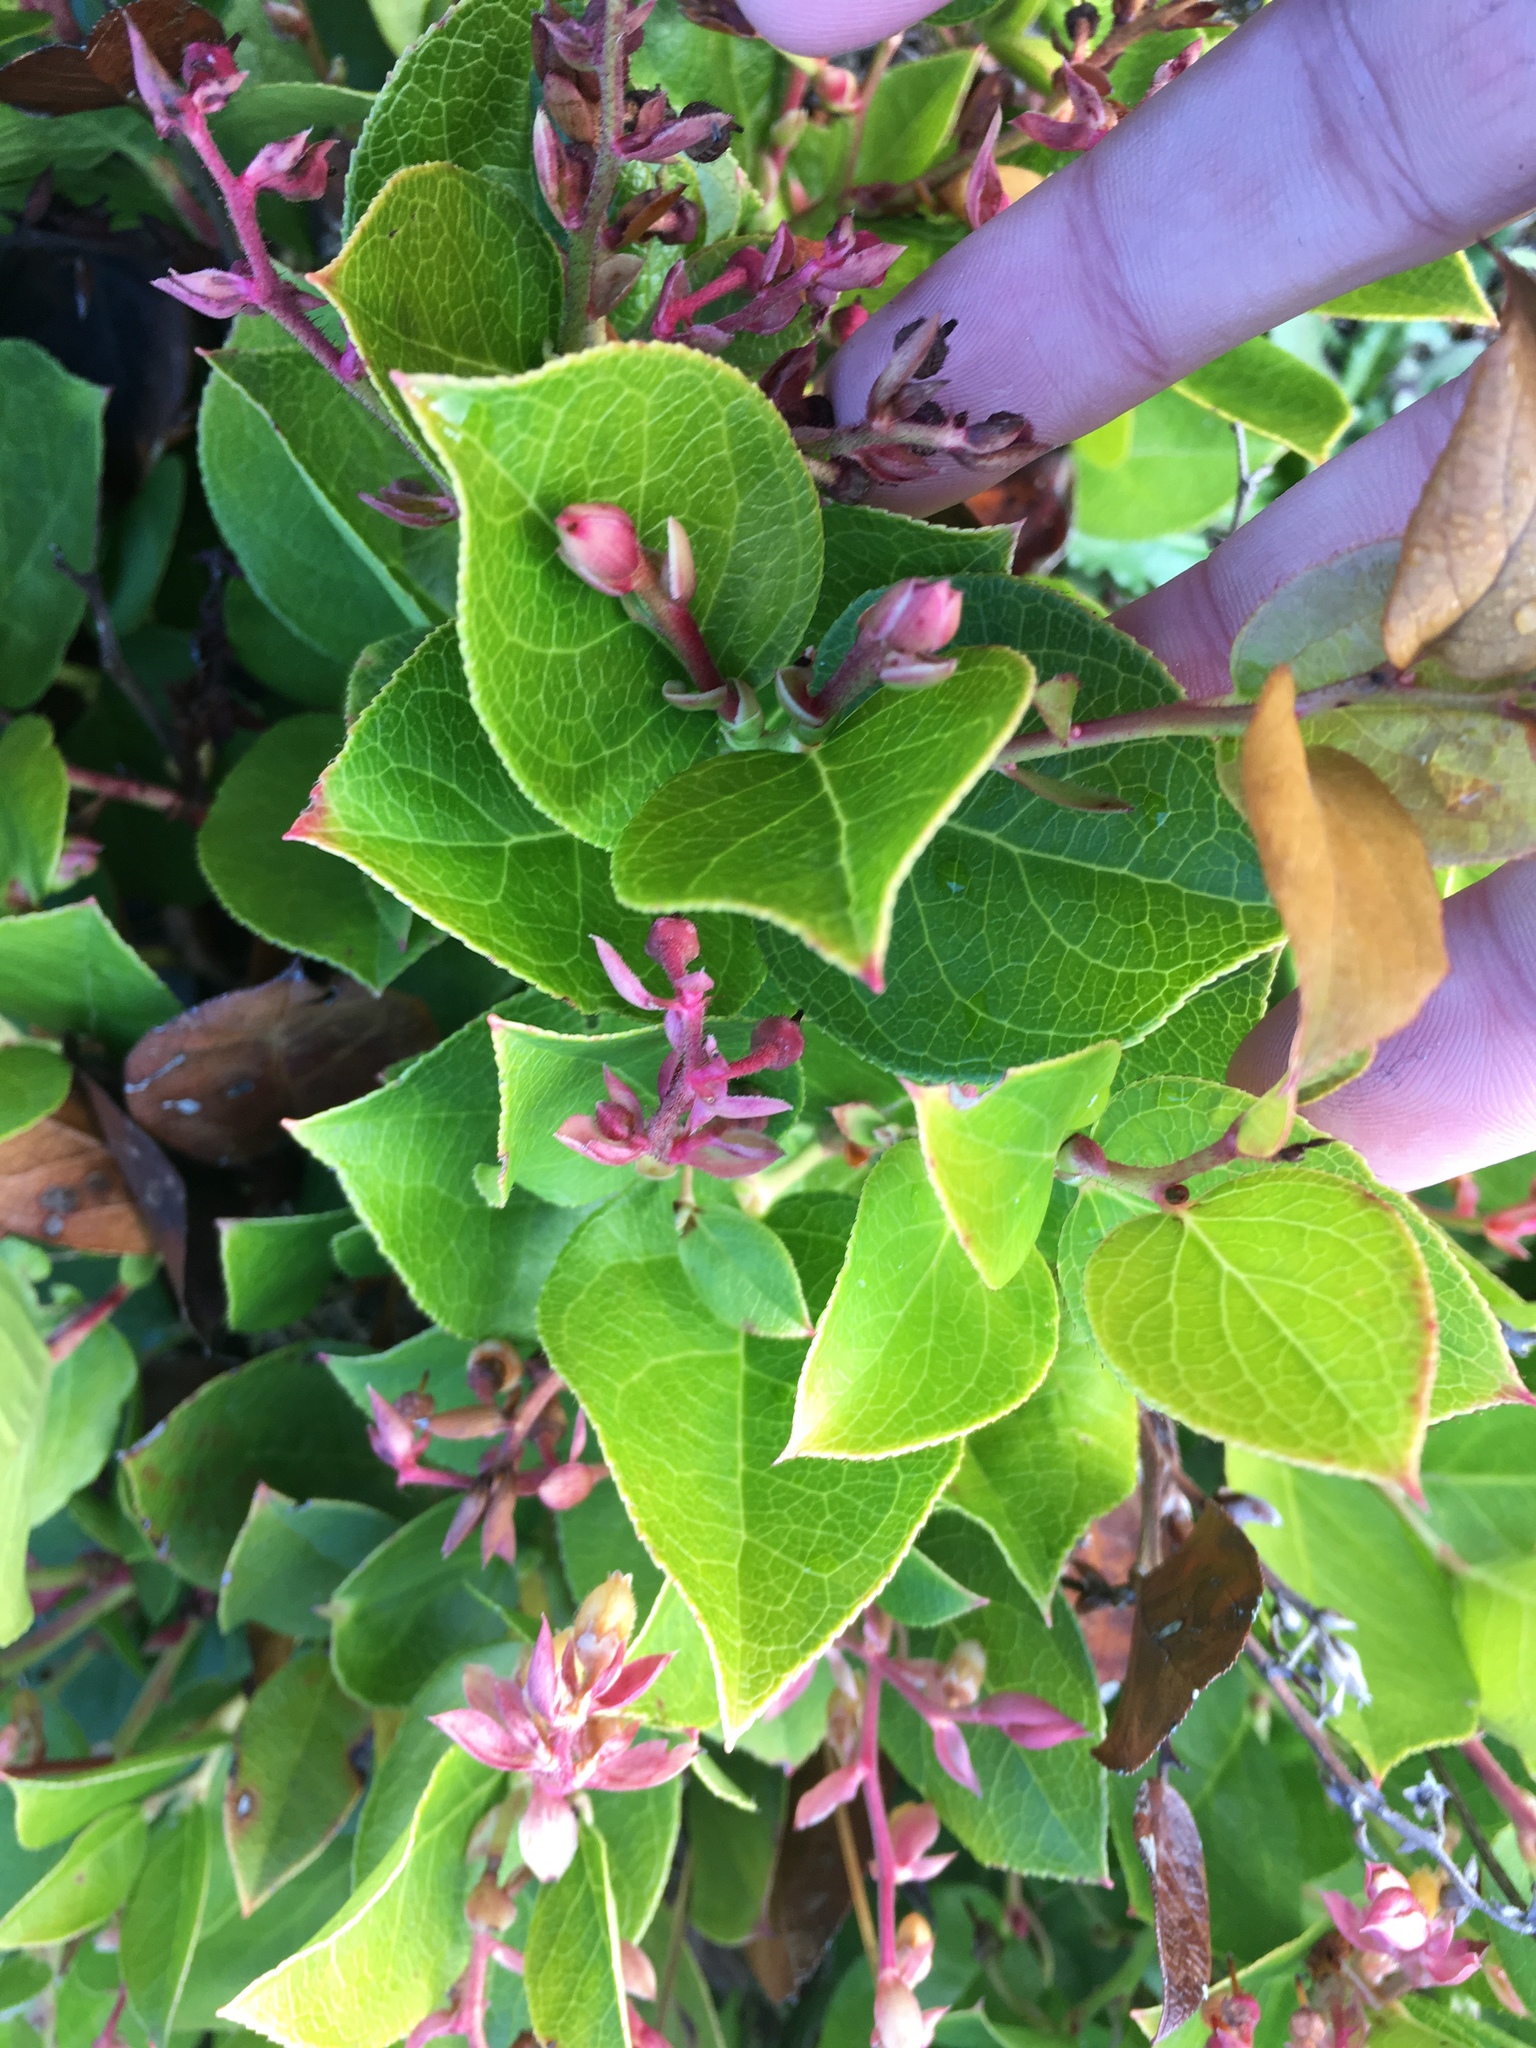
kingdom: Plantae
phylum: Tracheophyta
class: Magnoliopsida
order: Ericales
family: Ericaceae
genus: Gaultheria
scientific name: Gaultheria shallon
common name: Shallon
